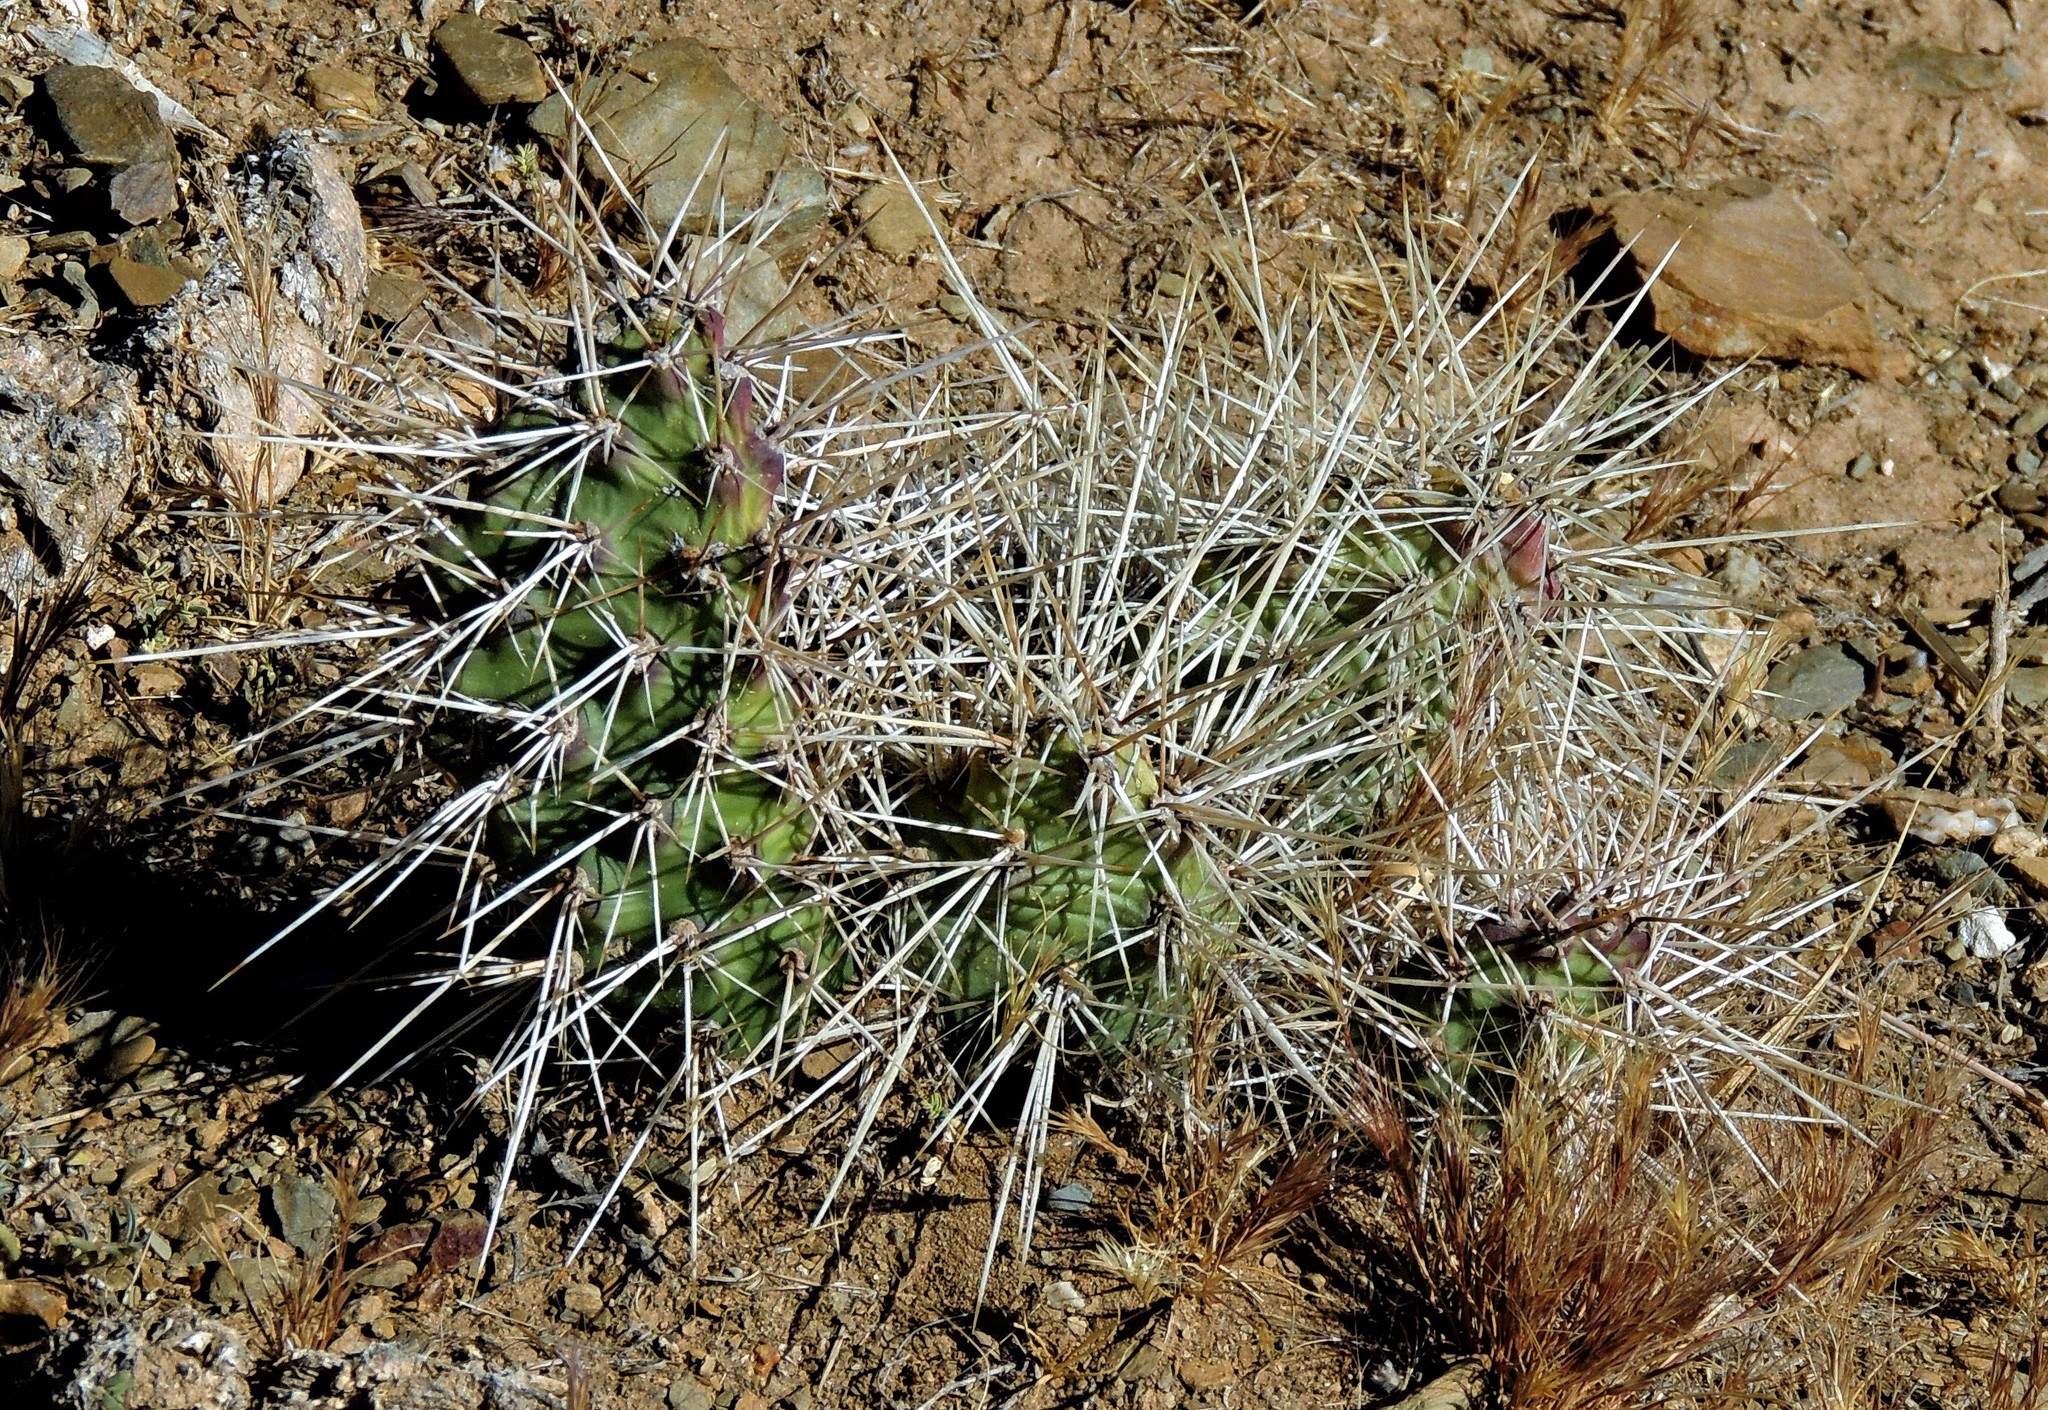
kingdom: Plantae
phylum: Tracheophyta
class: Magnoliopsida
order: Caryophyllales
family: Cactaceae
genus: Opuntia
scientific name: Opuntia sulphurea
